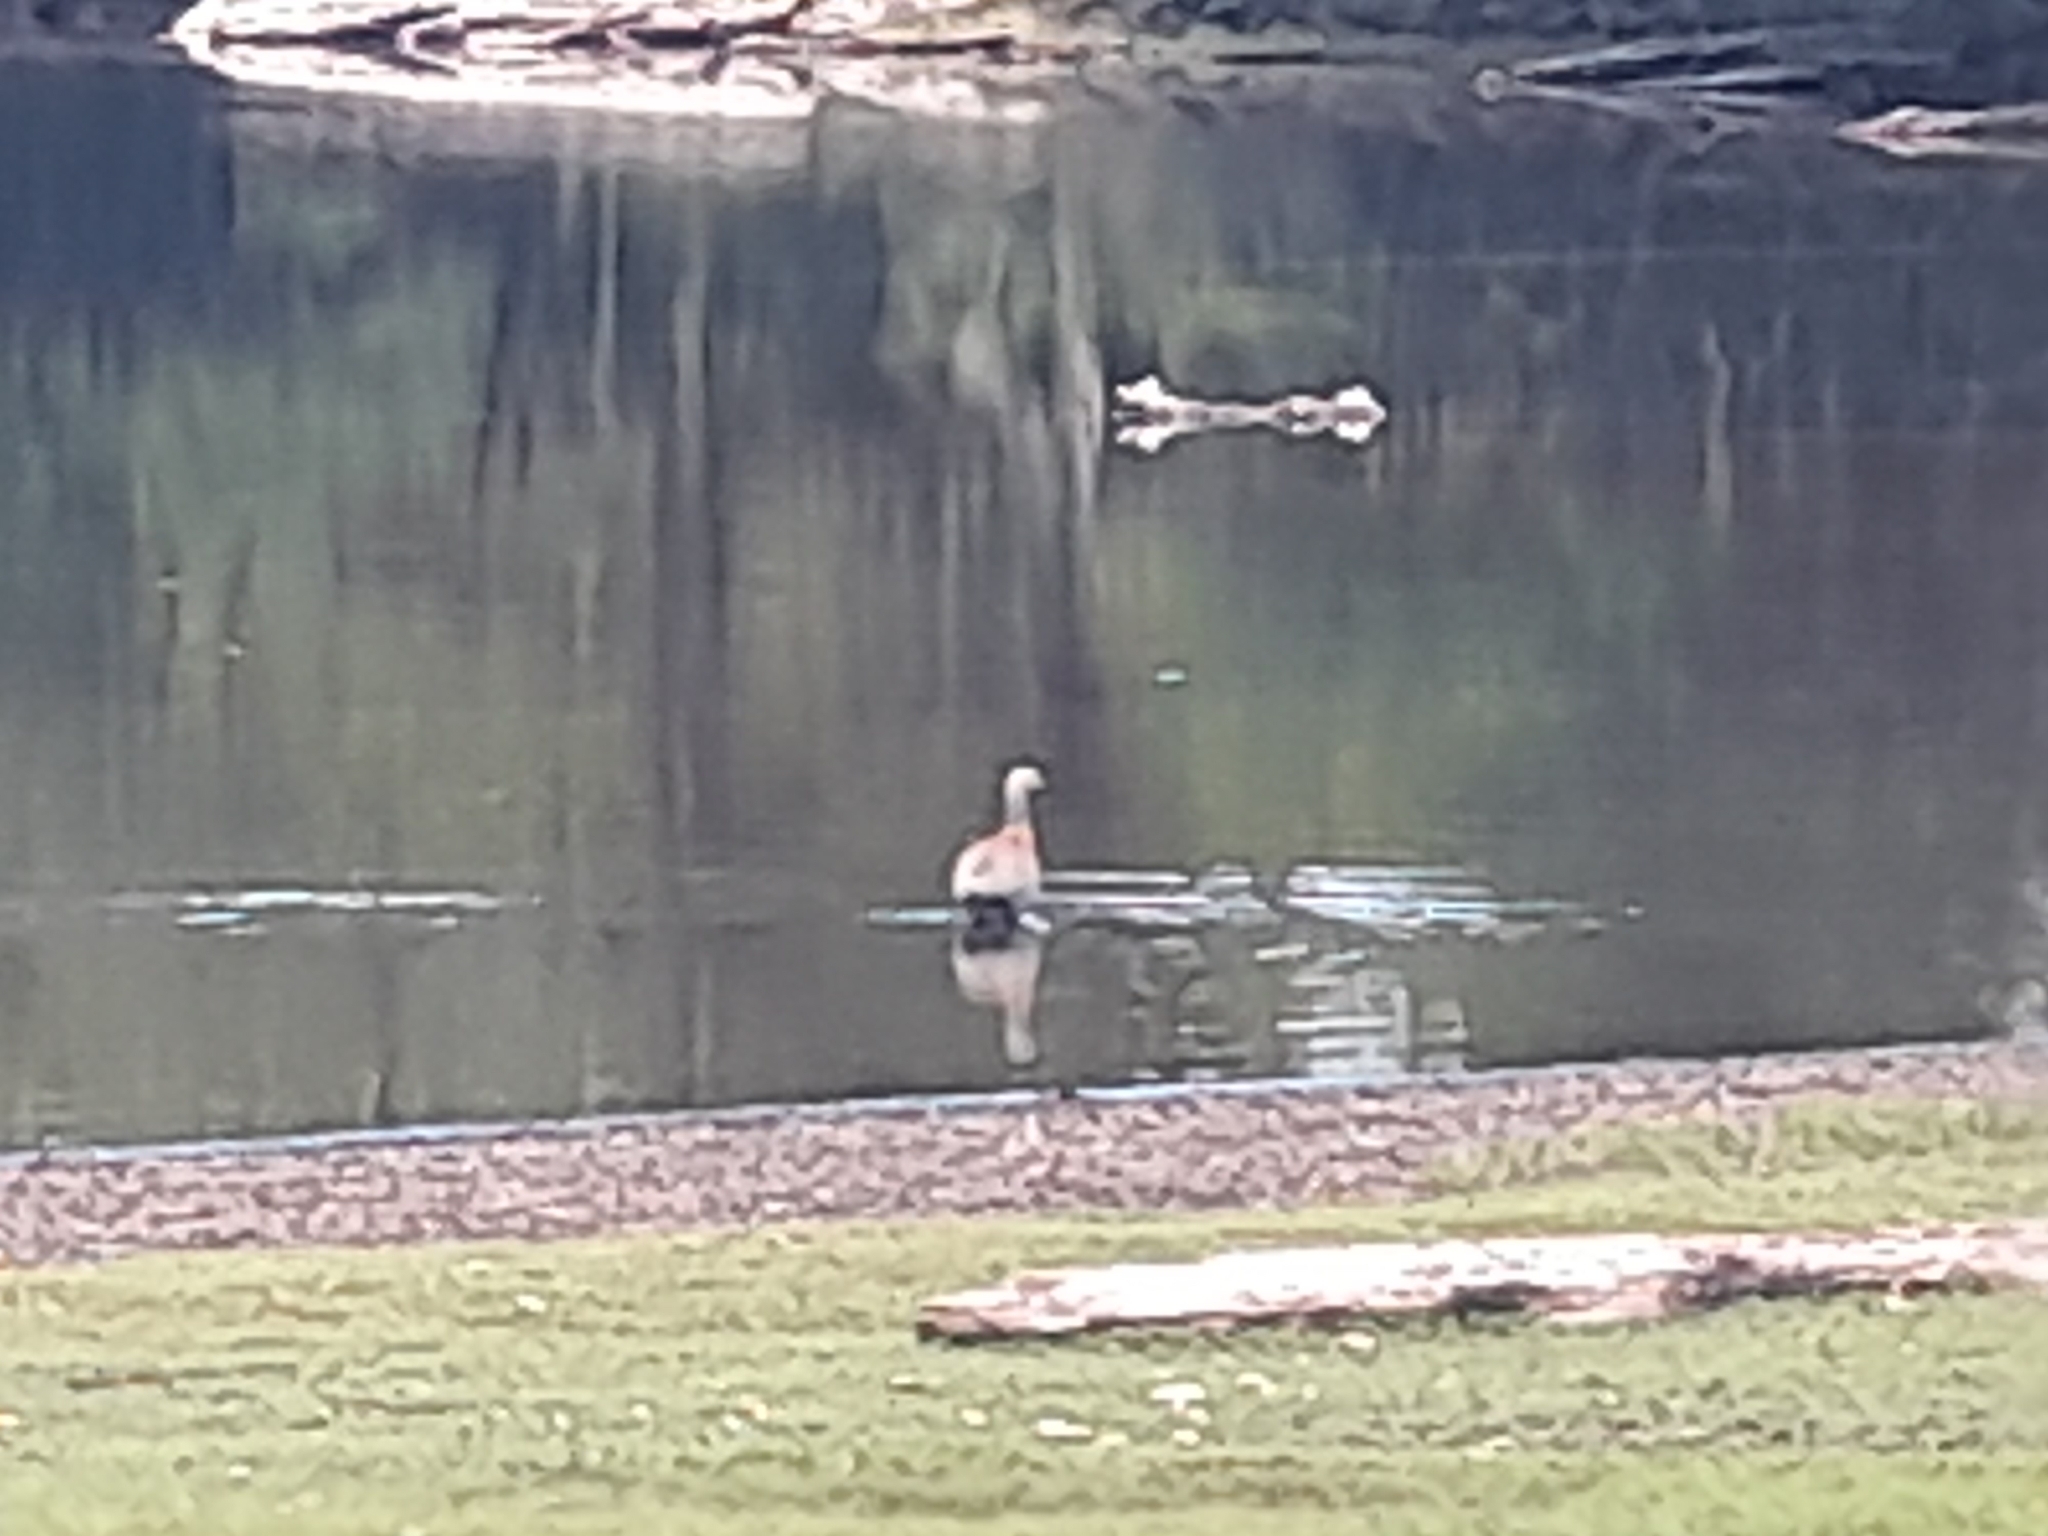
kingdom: Animalia
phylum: Chordata
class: Aves
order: Anseriformes
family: Anatidae
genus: Chloephaga
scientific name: Chloephaga poliocephala
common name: Ashy-headed goose
